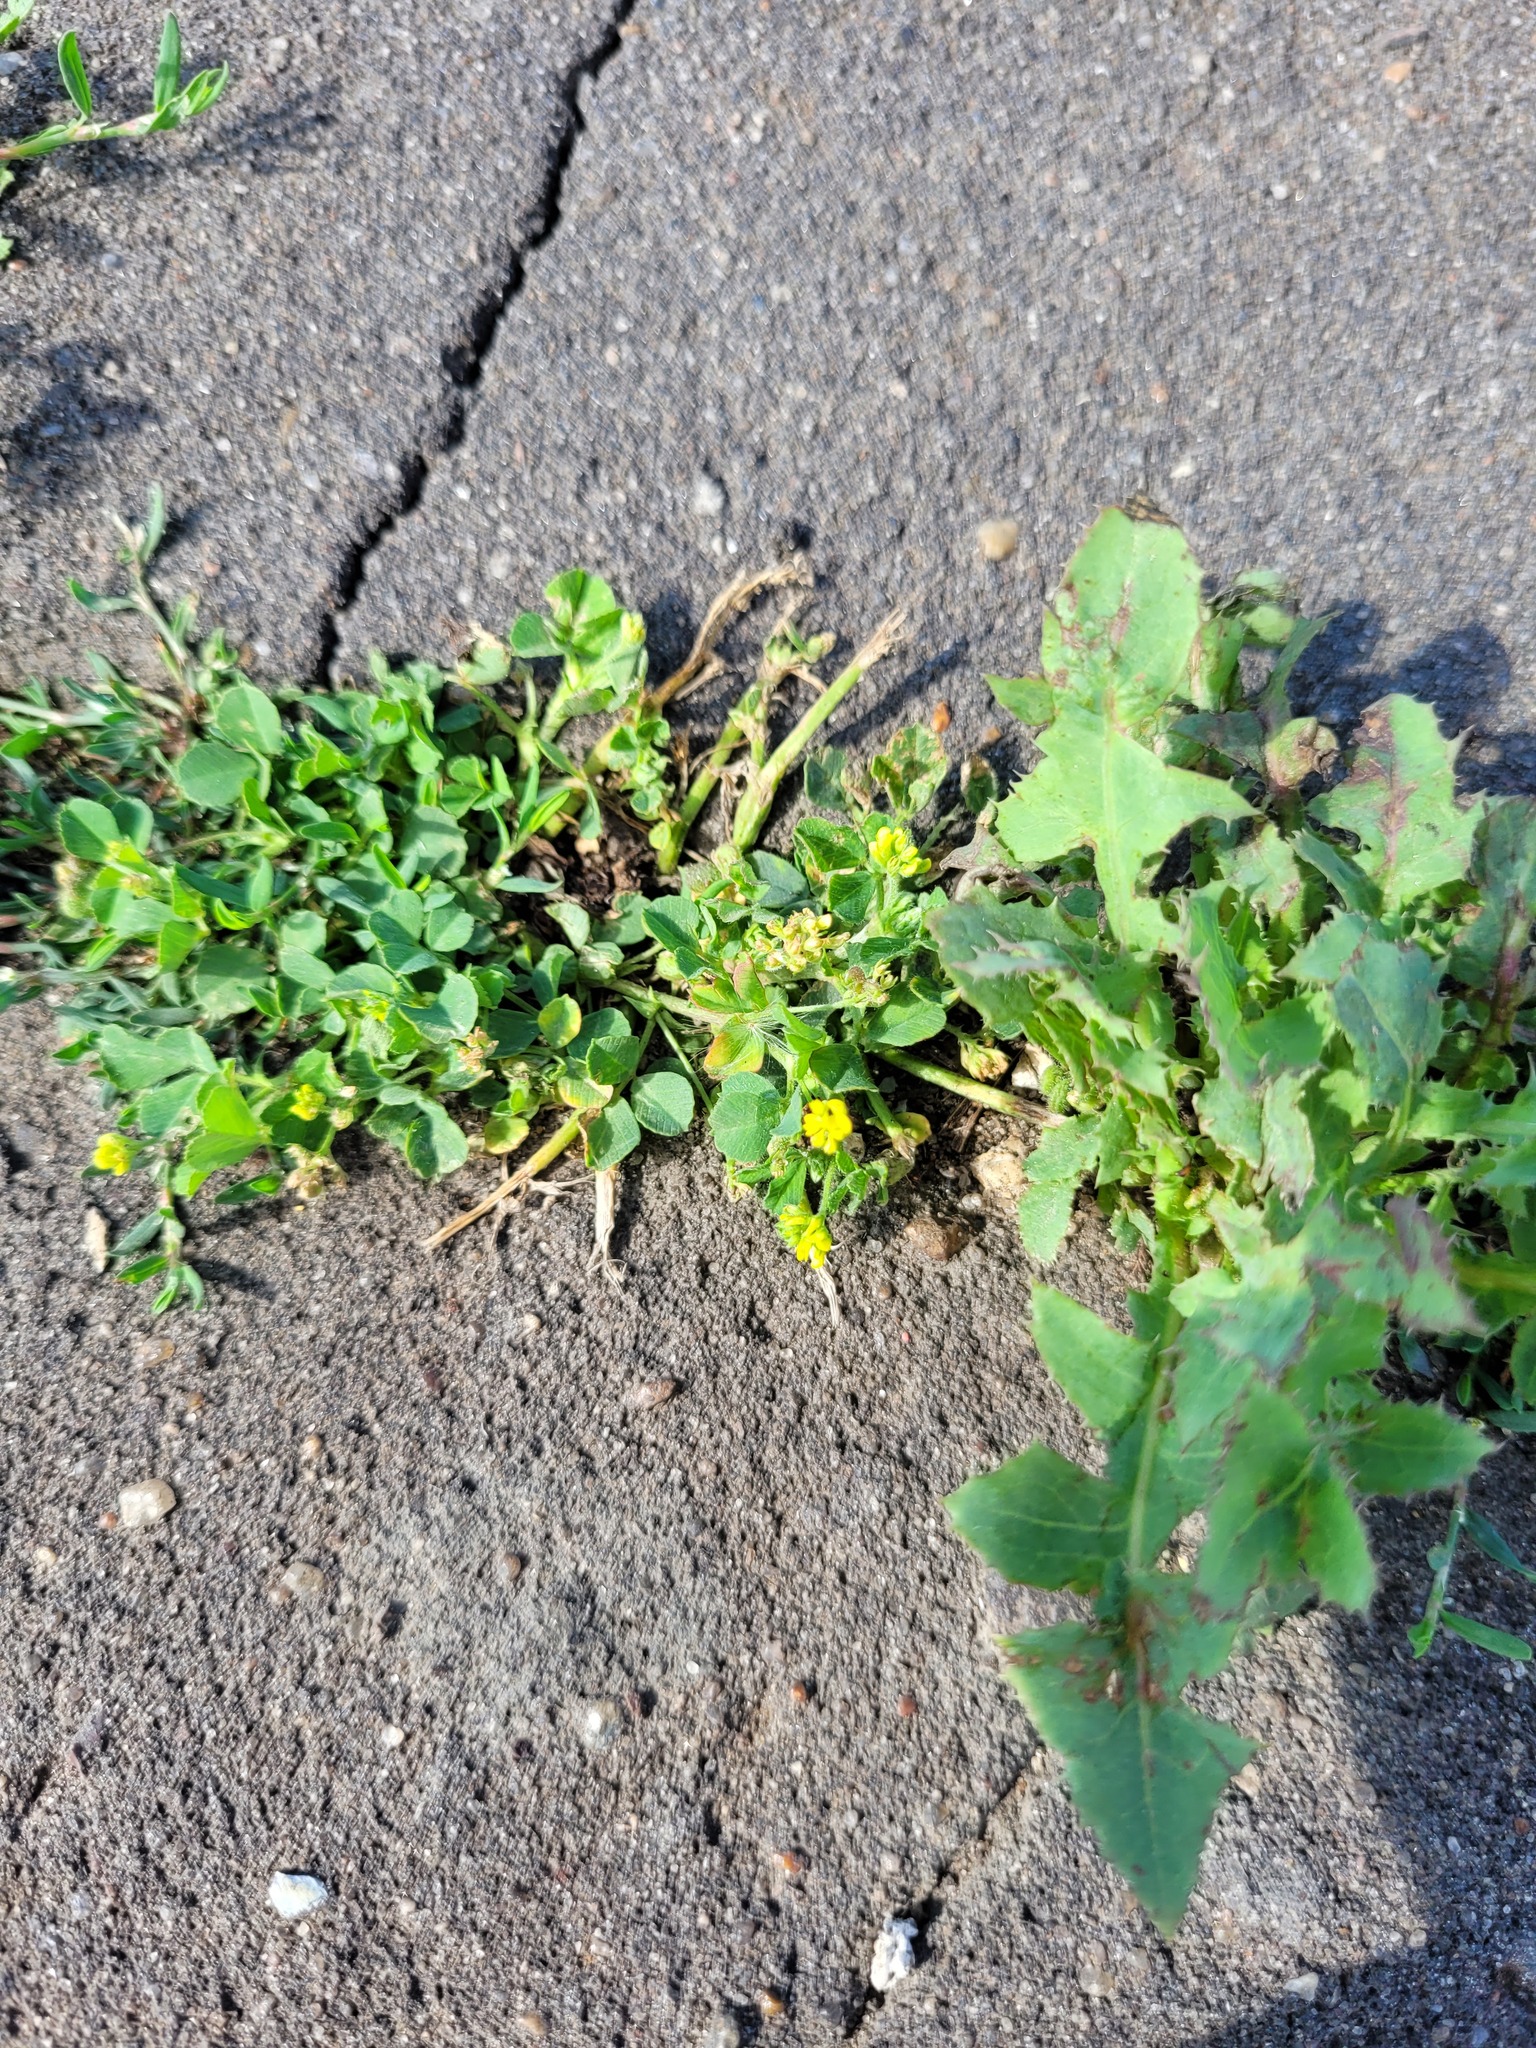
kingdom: Plantae
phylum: Tracheophyta
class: Magnoliopsida
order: Fabales
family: Fabaceae
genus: Medicago
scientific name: Medicago lupulina
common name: Black medick
